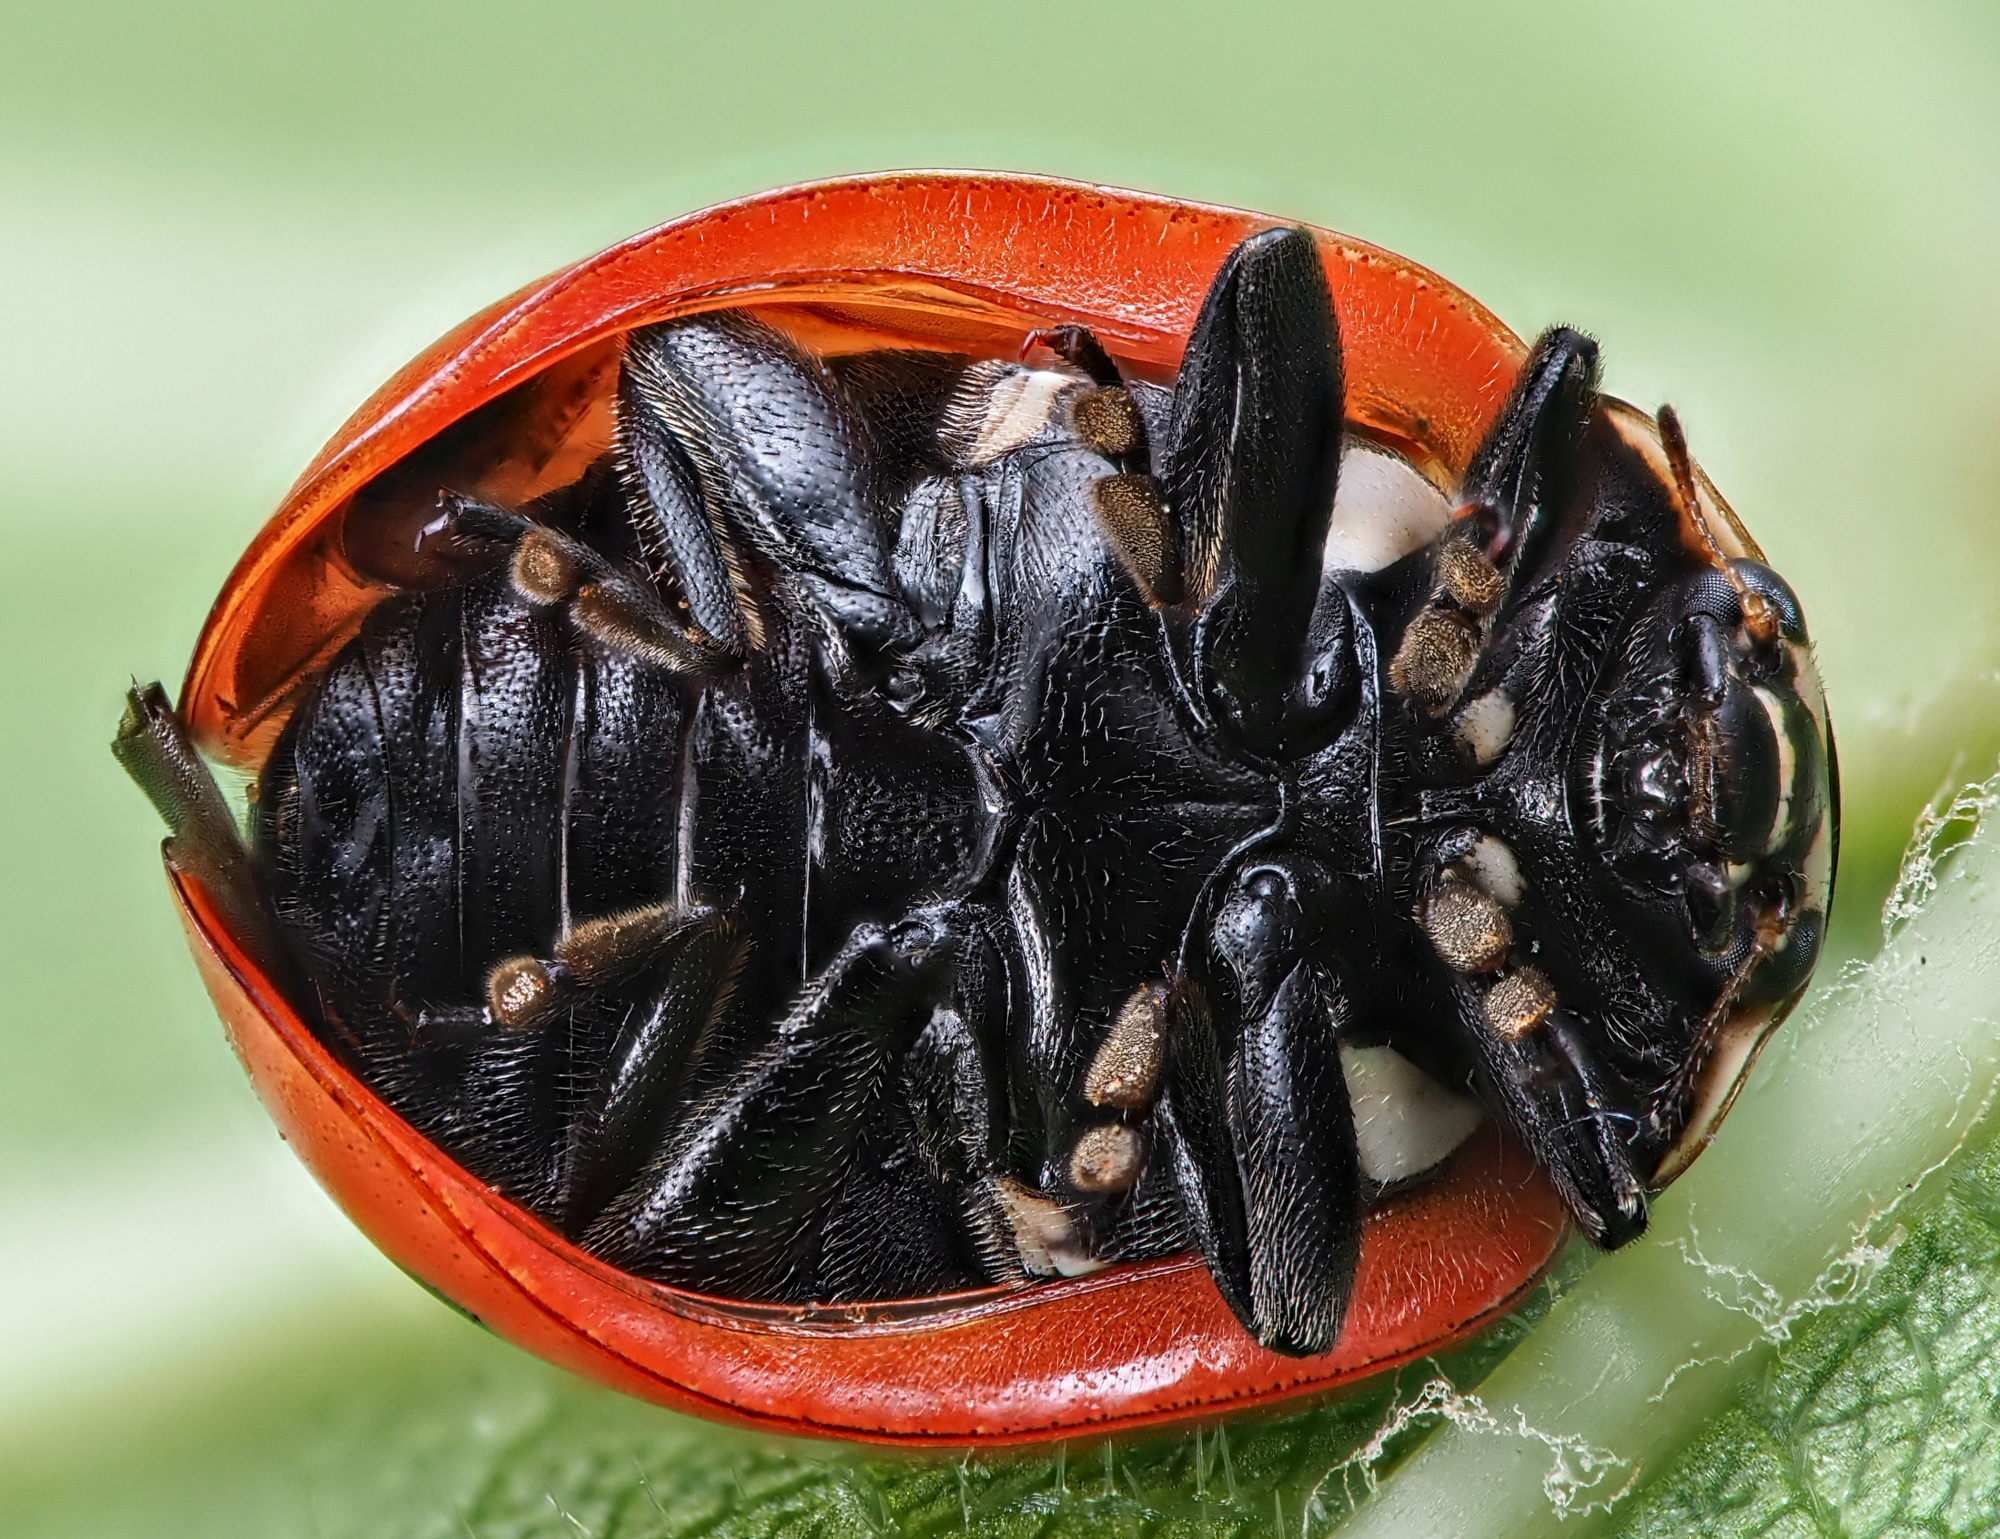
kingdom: Animalia
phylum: Arthropoda
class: Insecta
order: Coleoptera
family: Coccinellidae
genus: Coccinella
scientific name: Coccinella magnifica
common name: Scarce 7-spot ladybird
